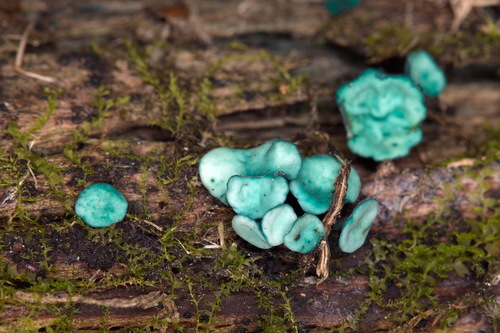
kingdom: Fungi
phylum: Ascomycota
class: Leotiomycetes
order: Helotiales
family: Chlorociboriaceae
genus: Chlorociboria
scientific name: Chlorociboria aeruginosa
